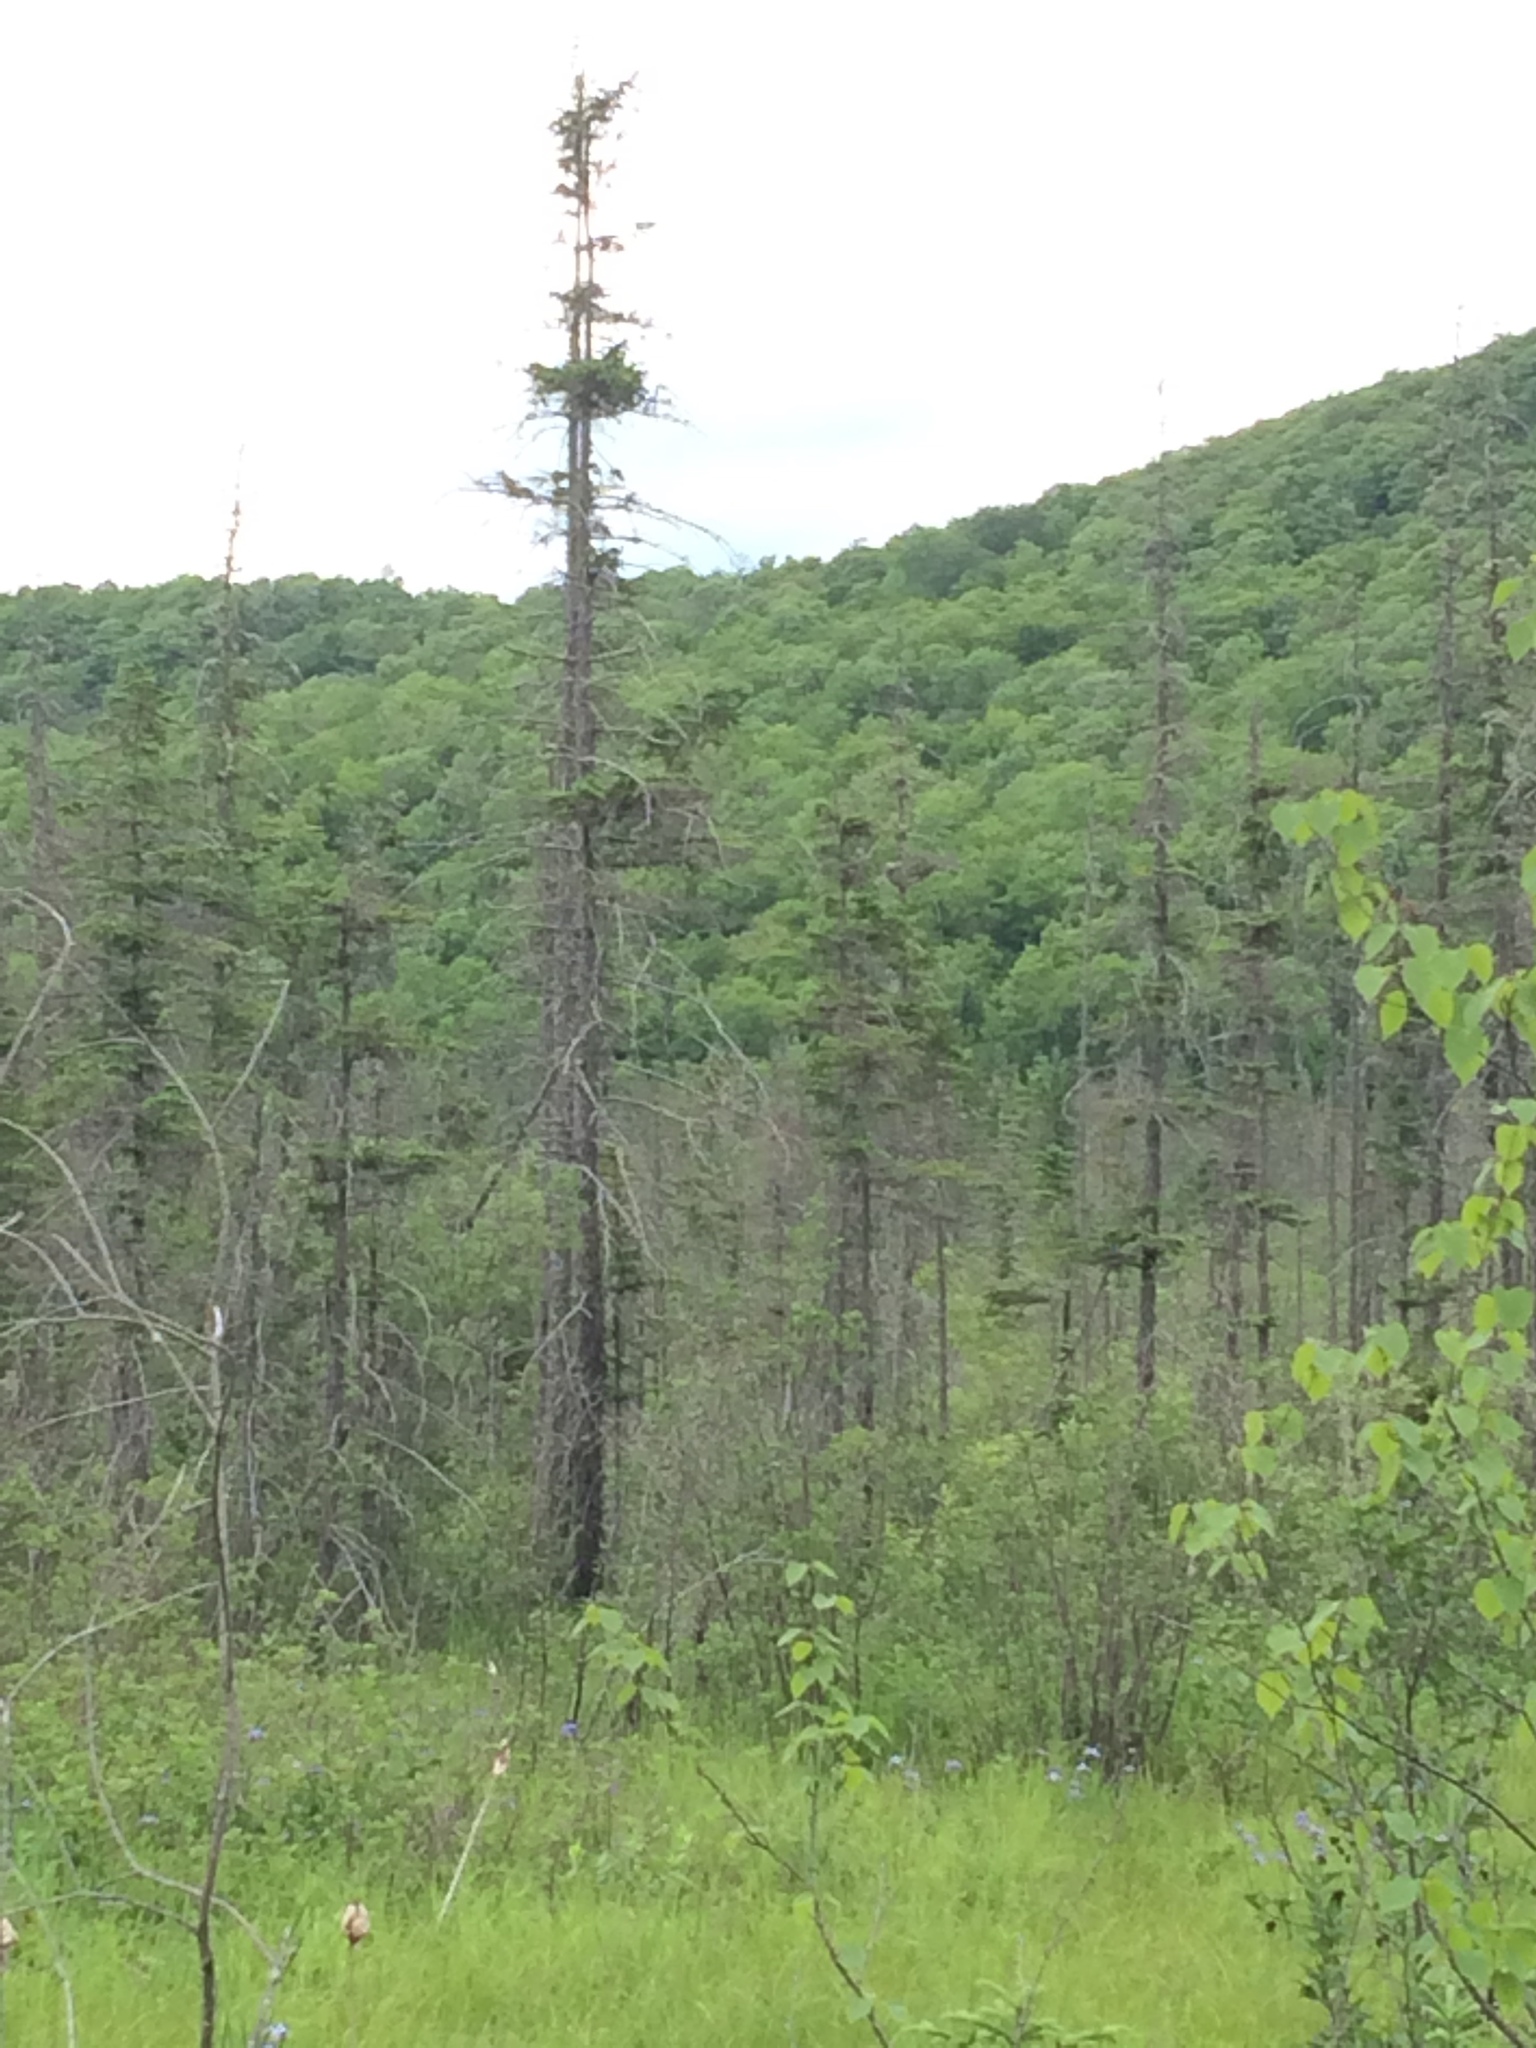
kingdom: Plantae
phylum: Tracheophyta
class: Pinopsida
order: Pinales
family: Pinaceae
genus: Picea
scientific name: Picea mariana
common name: Black spruce
